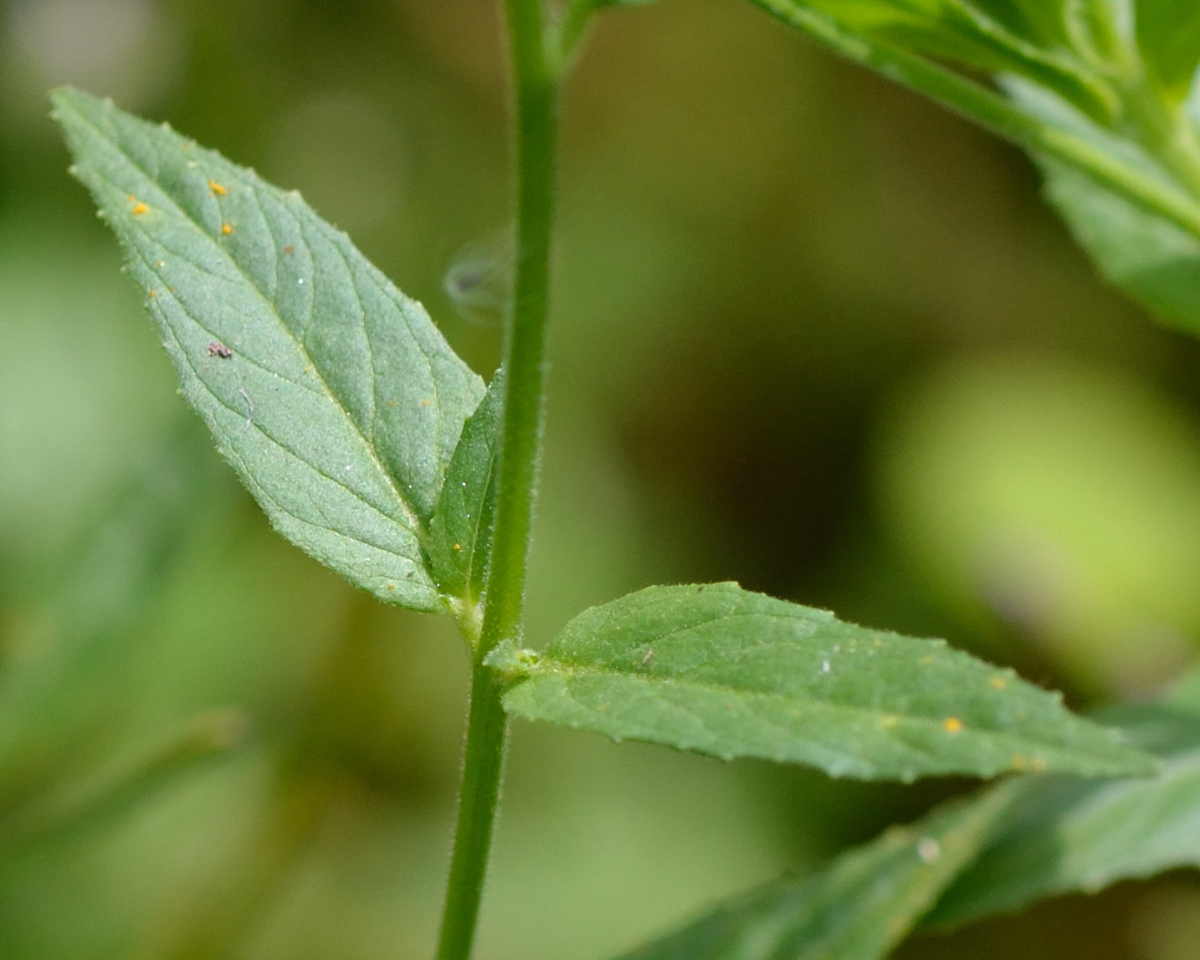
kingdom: Plantae
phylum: Tracheophyta
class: Magnoliopsida
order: Myrtales
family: Onagraceae
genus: Epilobium
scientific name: Epilobium ciliatum
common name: American willowherb
